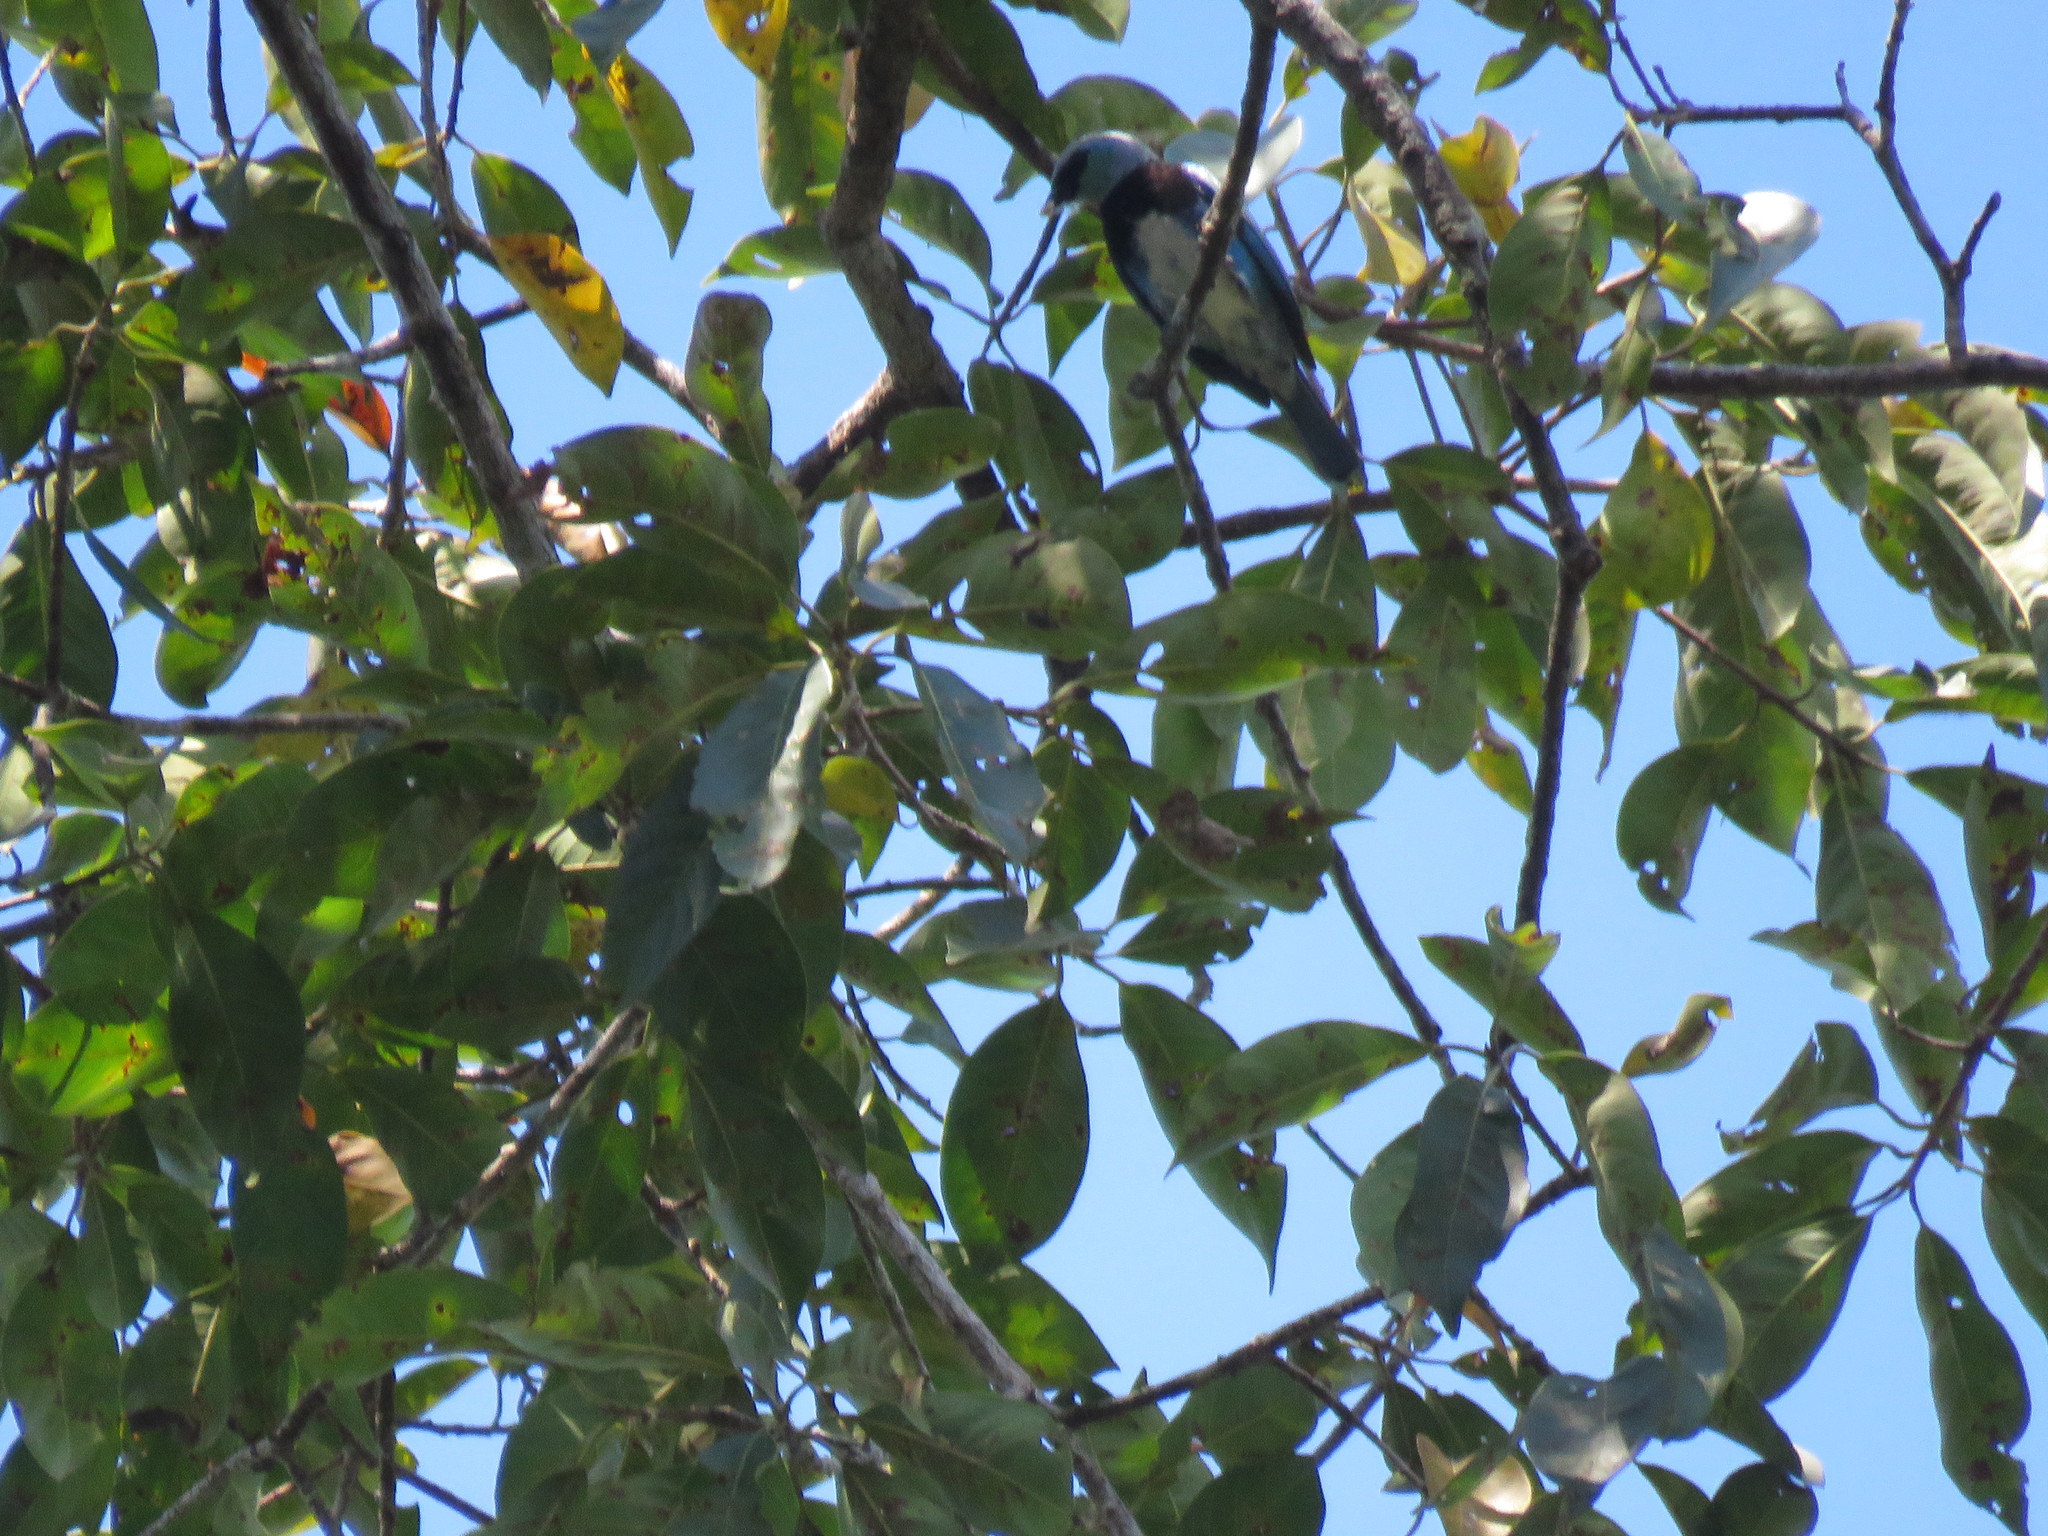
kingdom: Animalia
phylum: Chordata
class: Aves
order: Passeriformes
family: Thraupidae
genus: Stilpnia
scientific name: Stilpnia nigrocincta
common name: Masked tanager
